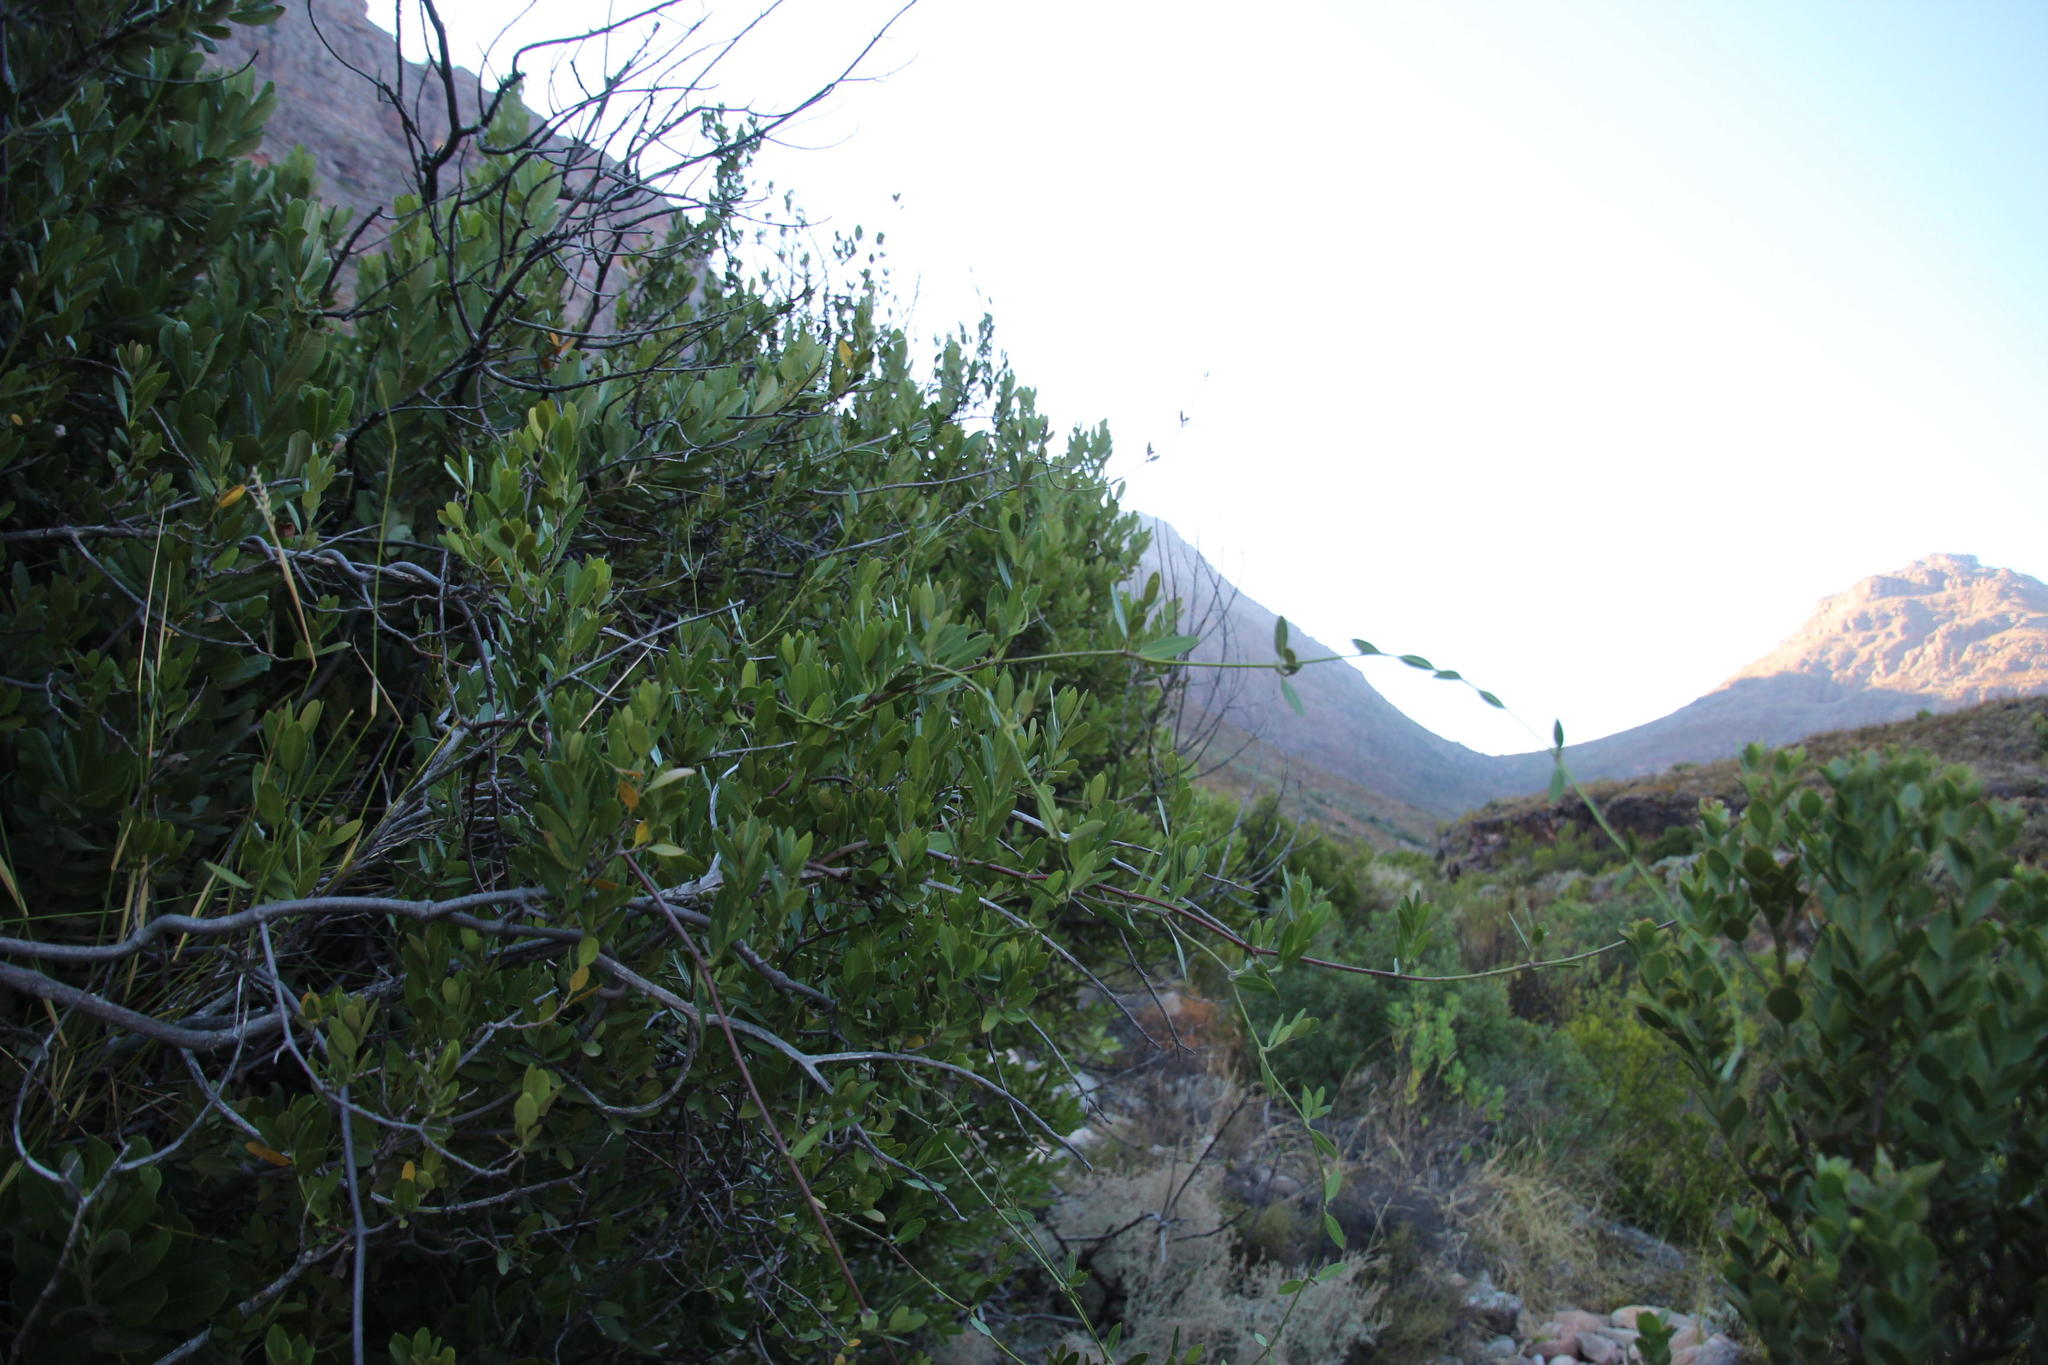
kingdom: Plantae
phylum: Tracheophyta
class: Magnoliopsida
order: Gentianales
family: Apocynaceae
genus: Secamone
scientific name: Secamone alpini
